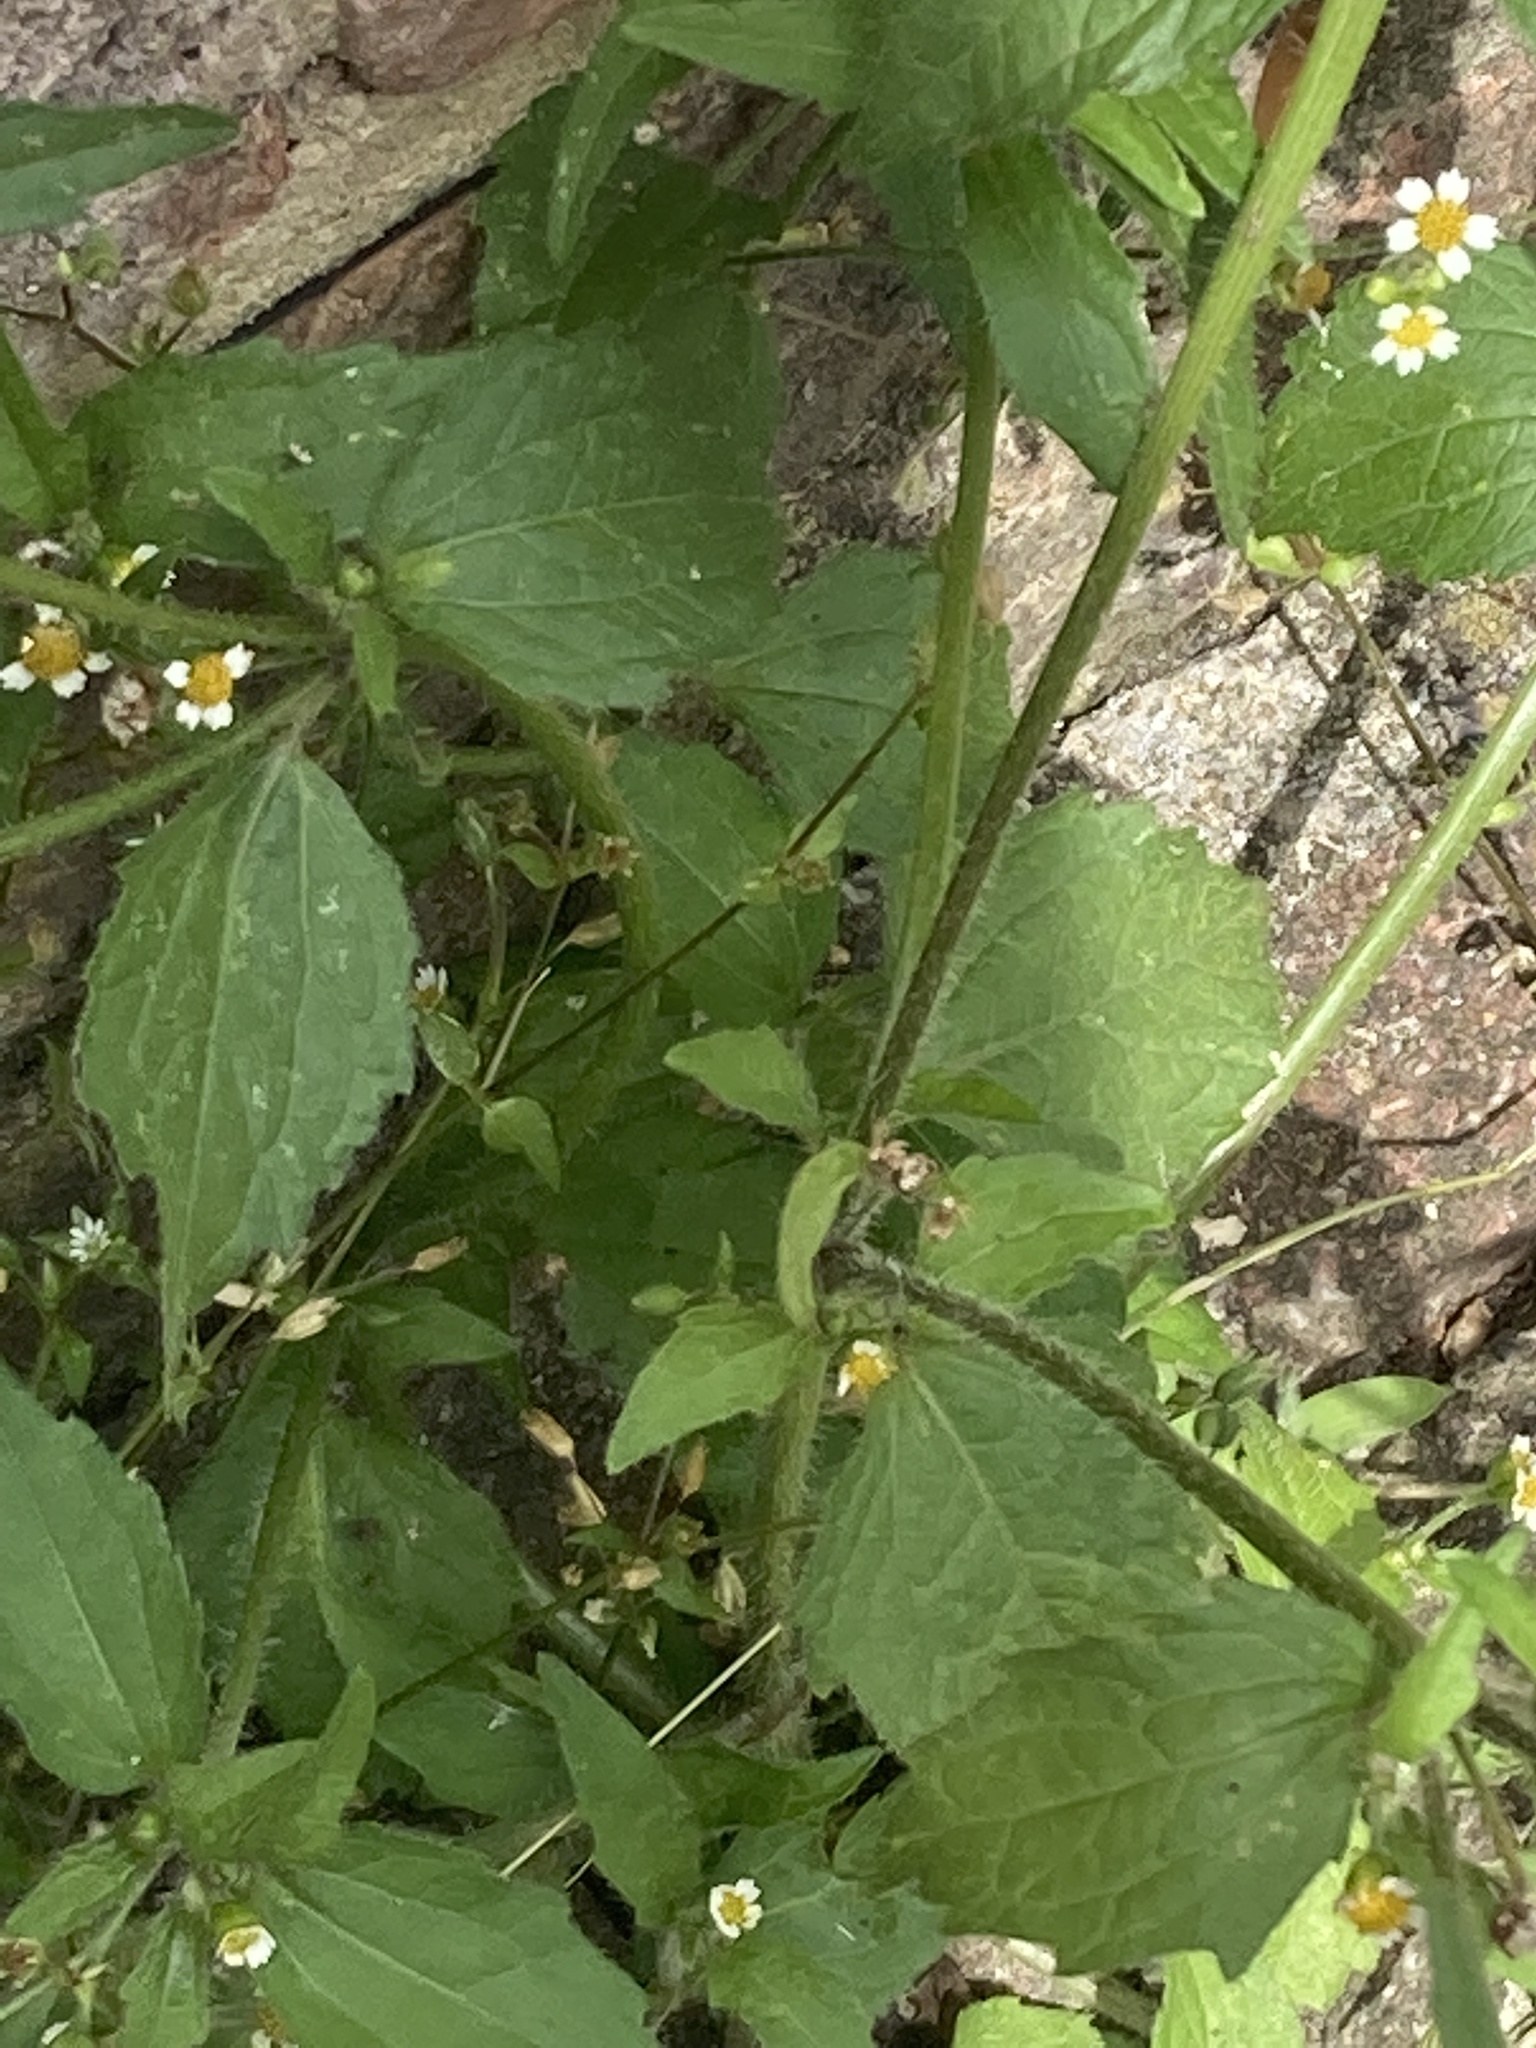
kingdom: Plantae
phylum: Tracheophyta
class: Magnoliopsida
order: Asterales
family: Asteraceae
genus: Galinsoga
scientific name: Galinsoga quadriradiata
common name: Shaggy soldier
